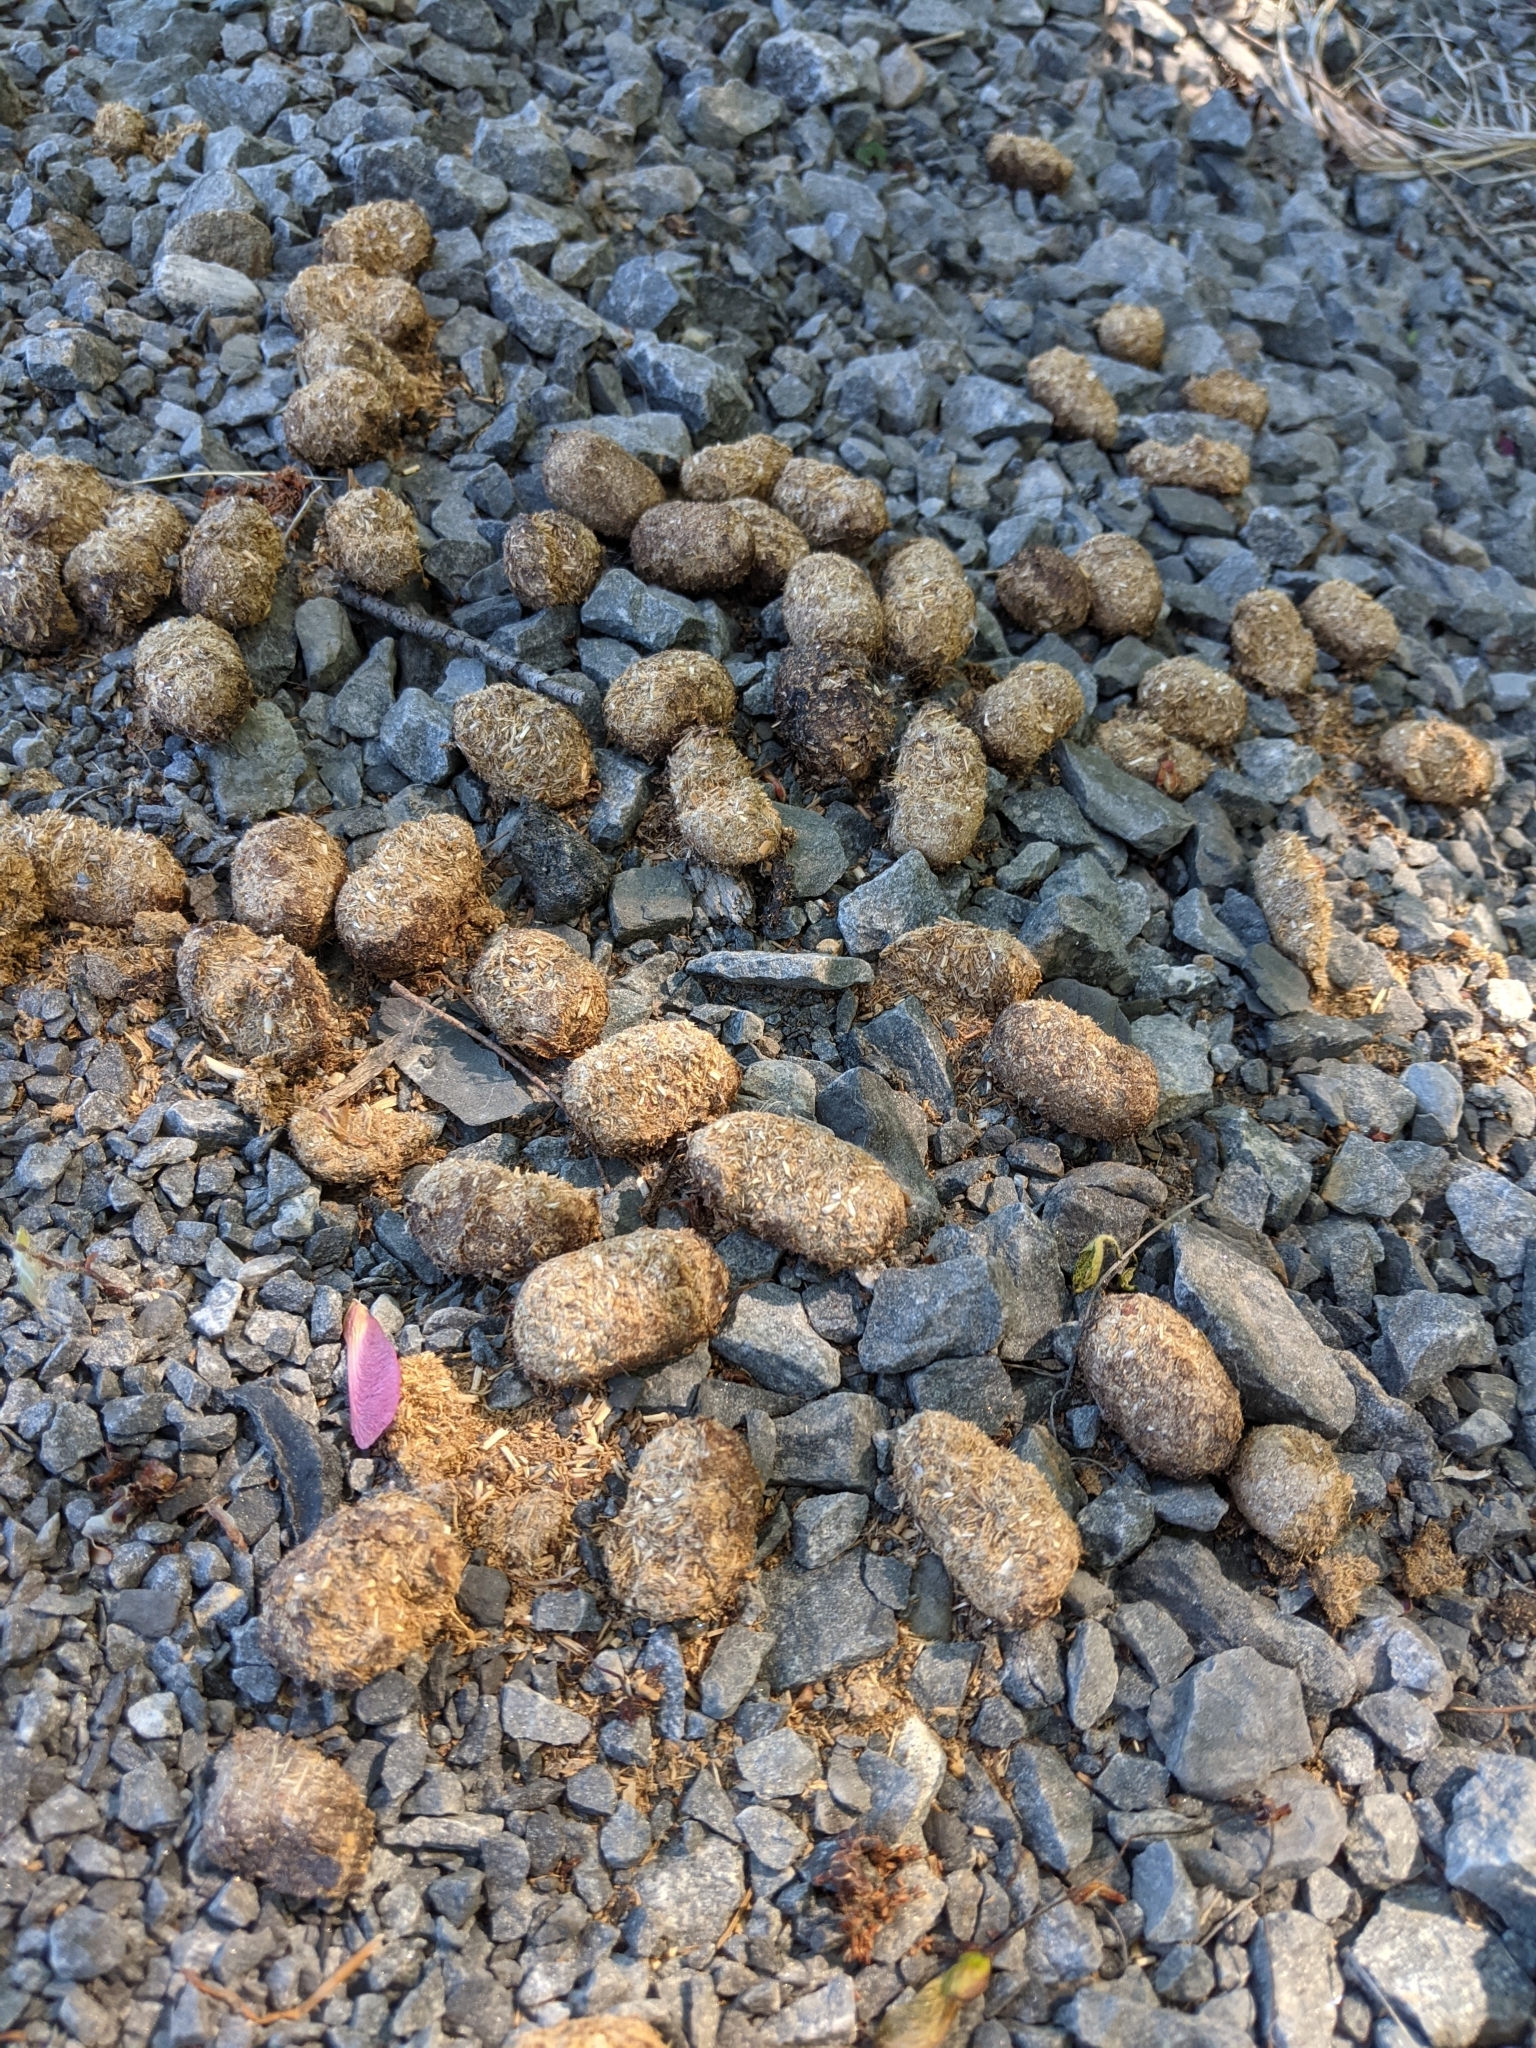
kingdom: Animalia
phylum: Chordata
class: Mammalia
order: Artiodactyla
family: Cervidae
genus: Alces
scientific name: Alces alces
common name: Moose
